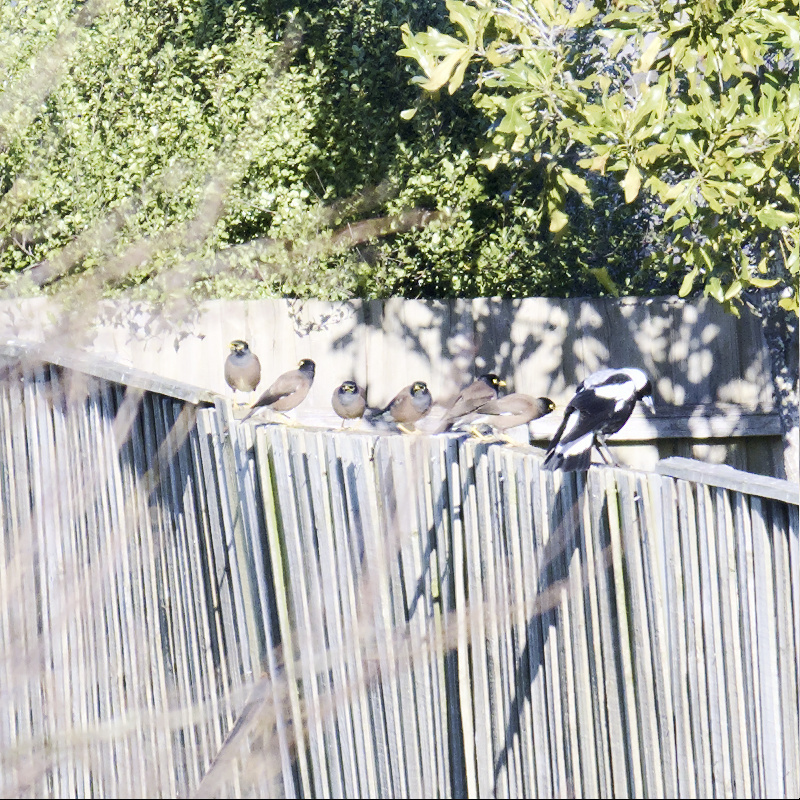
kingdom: Animalia
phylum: Chordata
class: Aves
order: Passeriformes
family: Sturnidae
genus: Acridotheres
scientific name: Acridotheres tristis
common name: Common myna
